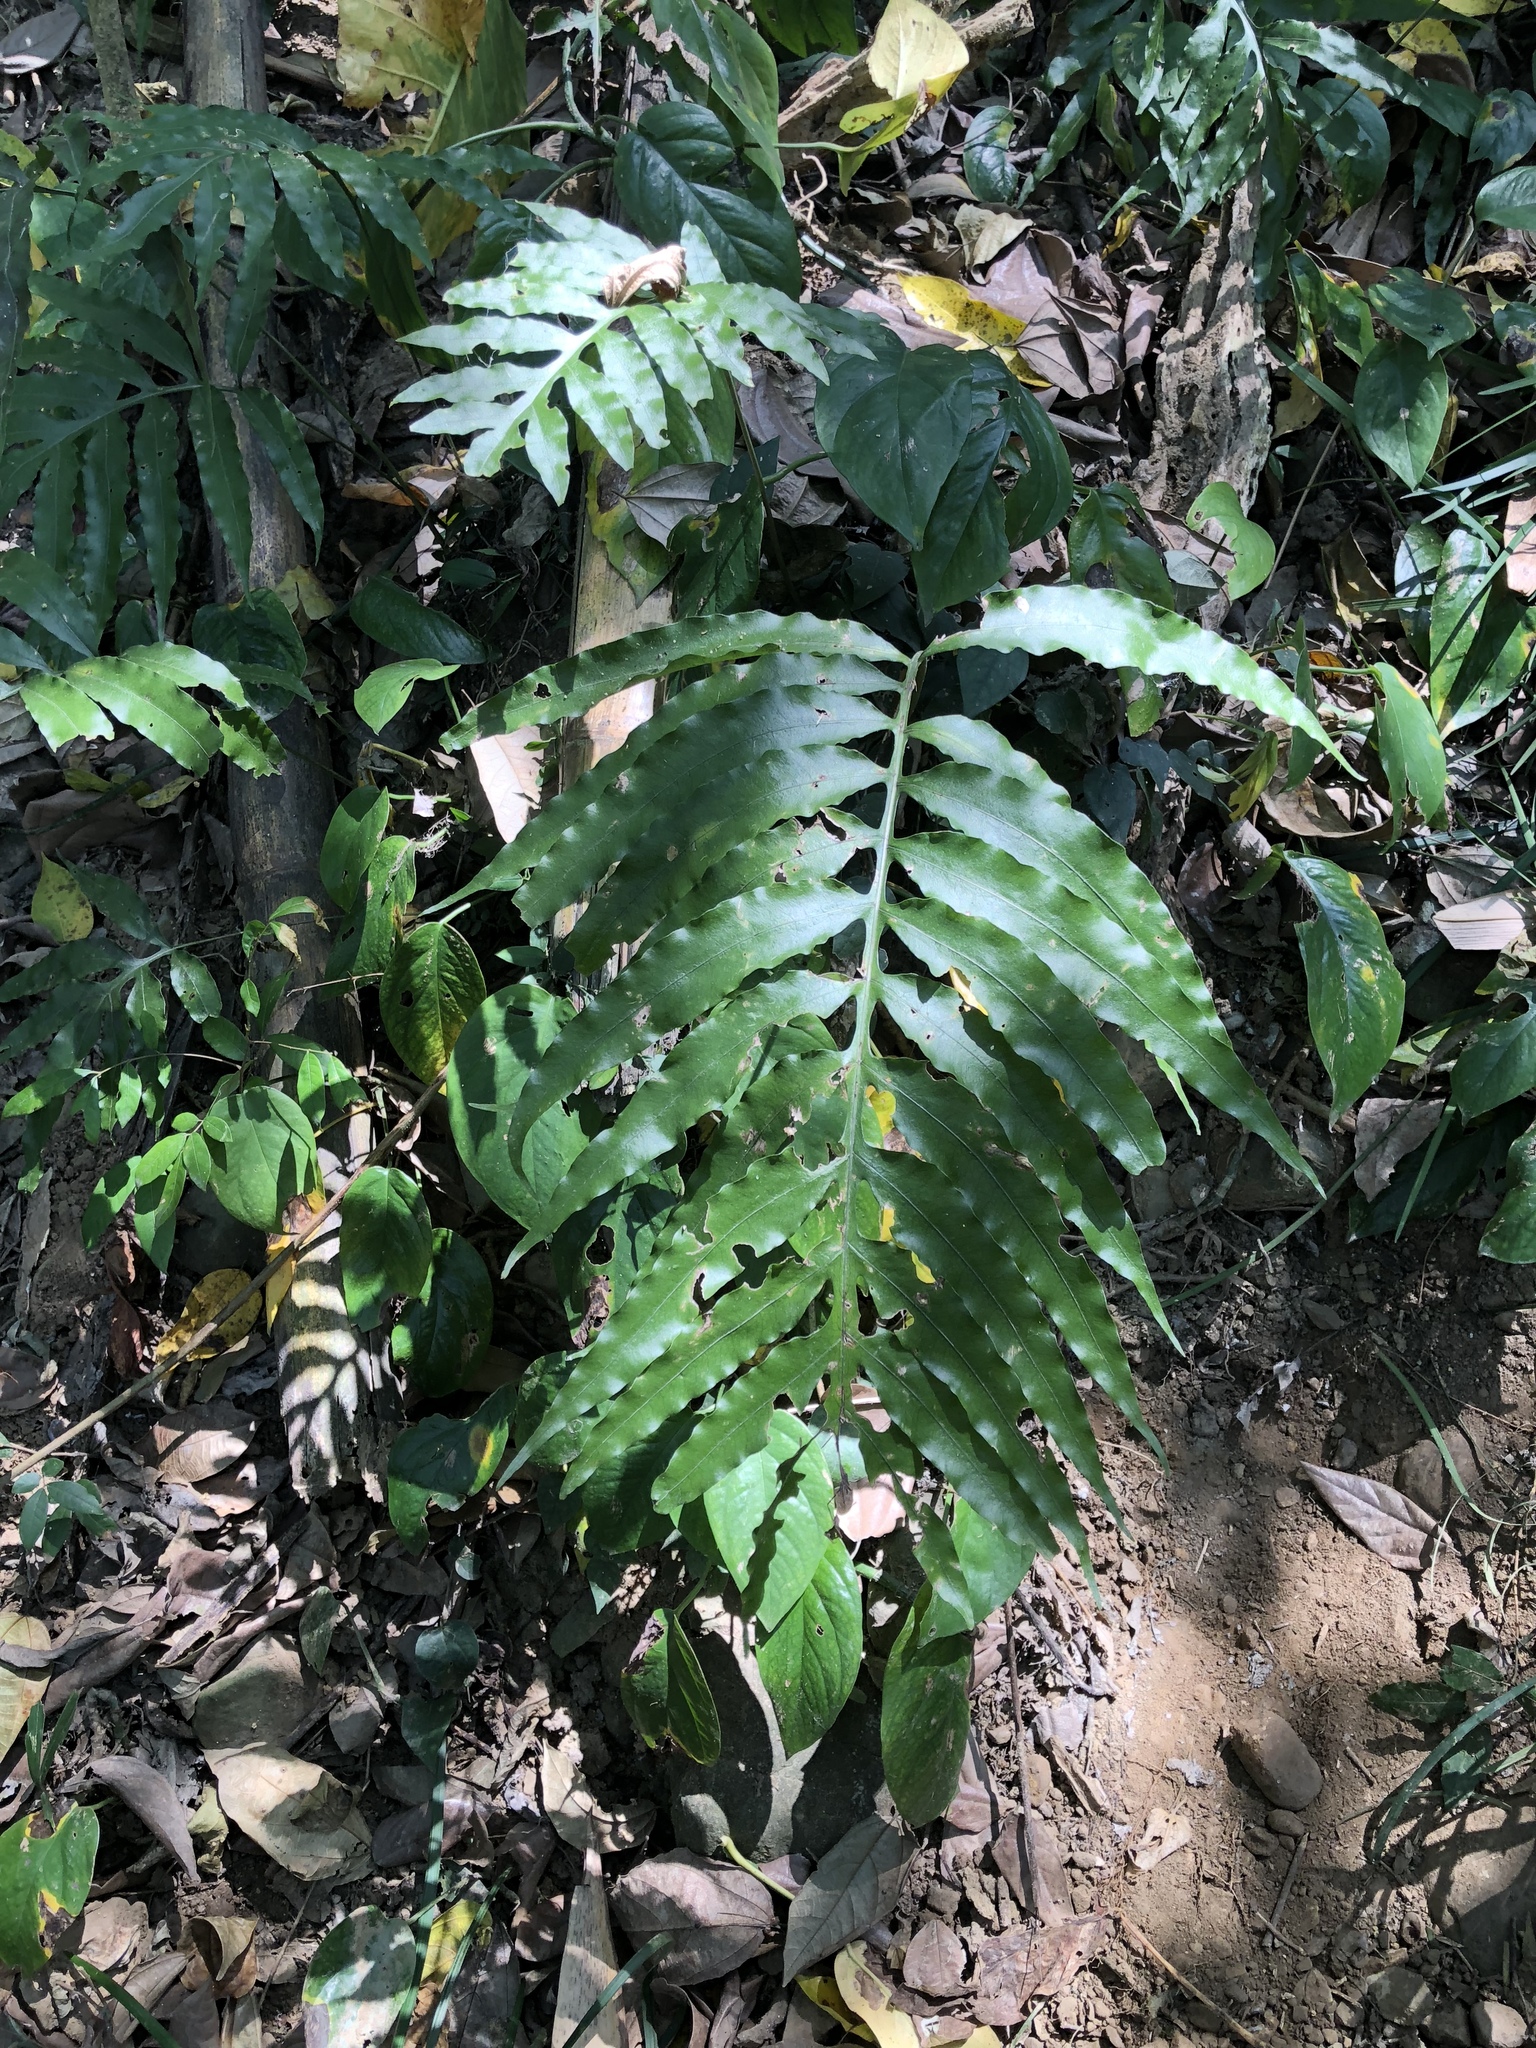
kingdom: Plantae
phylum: Tracheophyta
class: Polypodiopsida
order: Polypodiales
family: Polypodiaceae
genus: Leptochilus
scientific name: Leptochilus ellipticus
